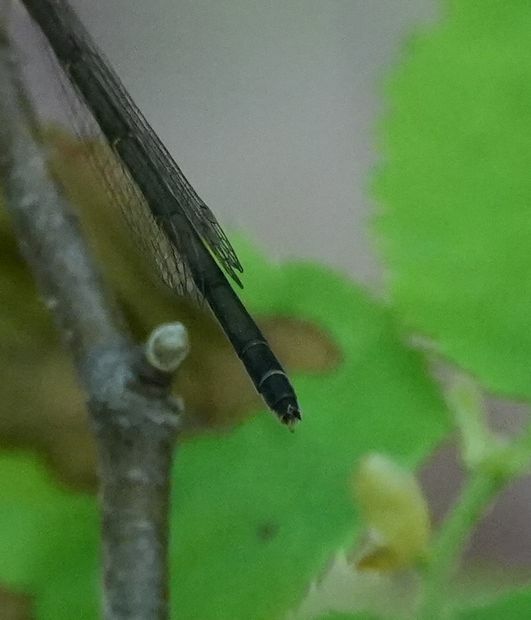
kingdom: Animalia
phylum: Arthropoda
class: Insecta
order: Odonata
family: Coenagrionidae
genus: Ischnura
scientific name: Ischnura verticalis
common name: Eastern forktail
